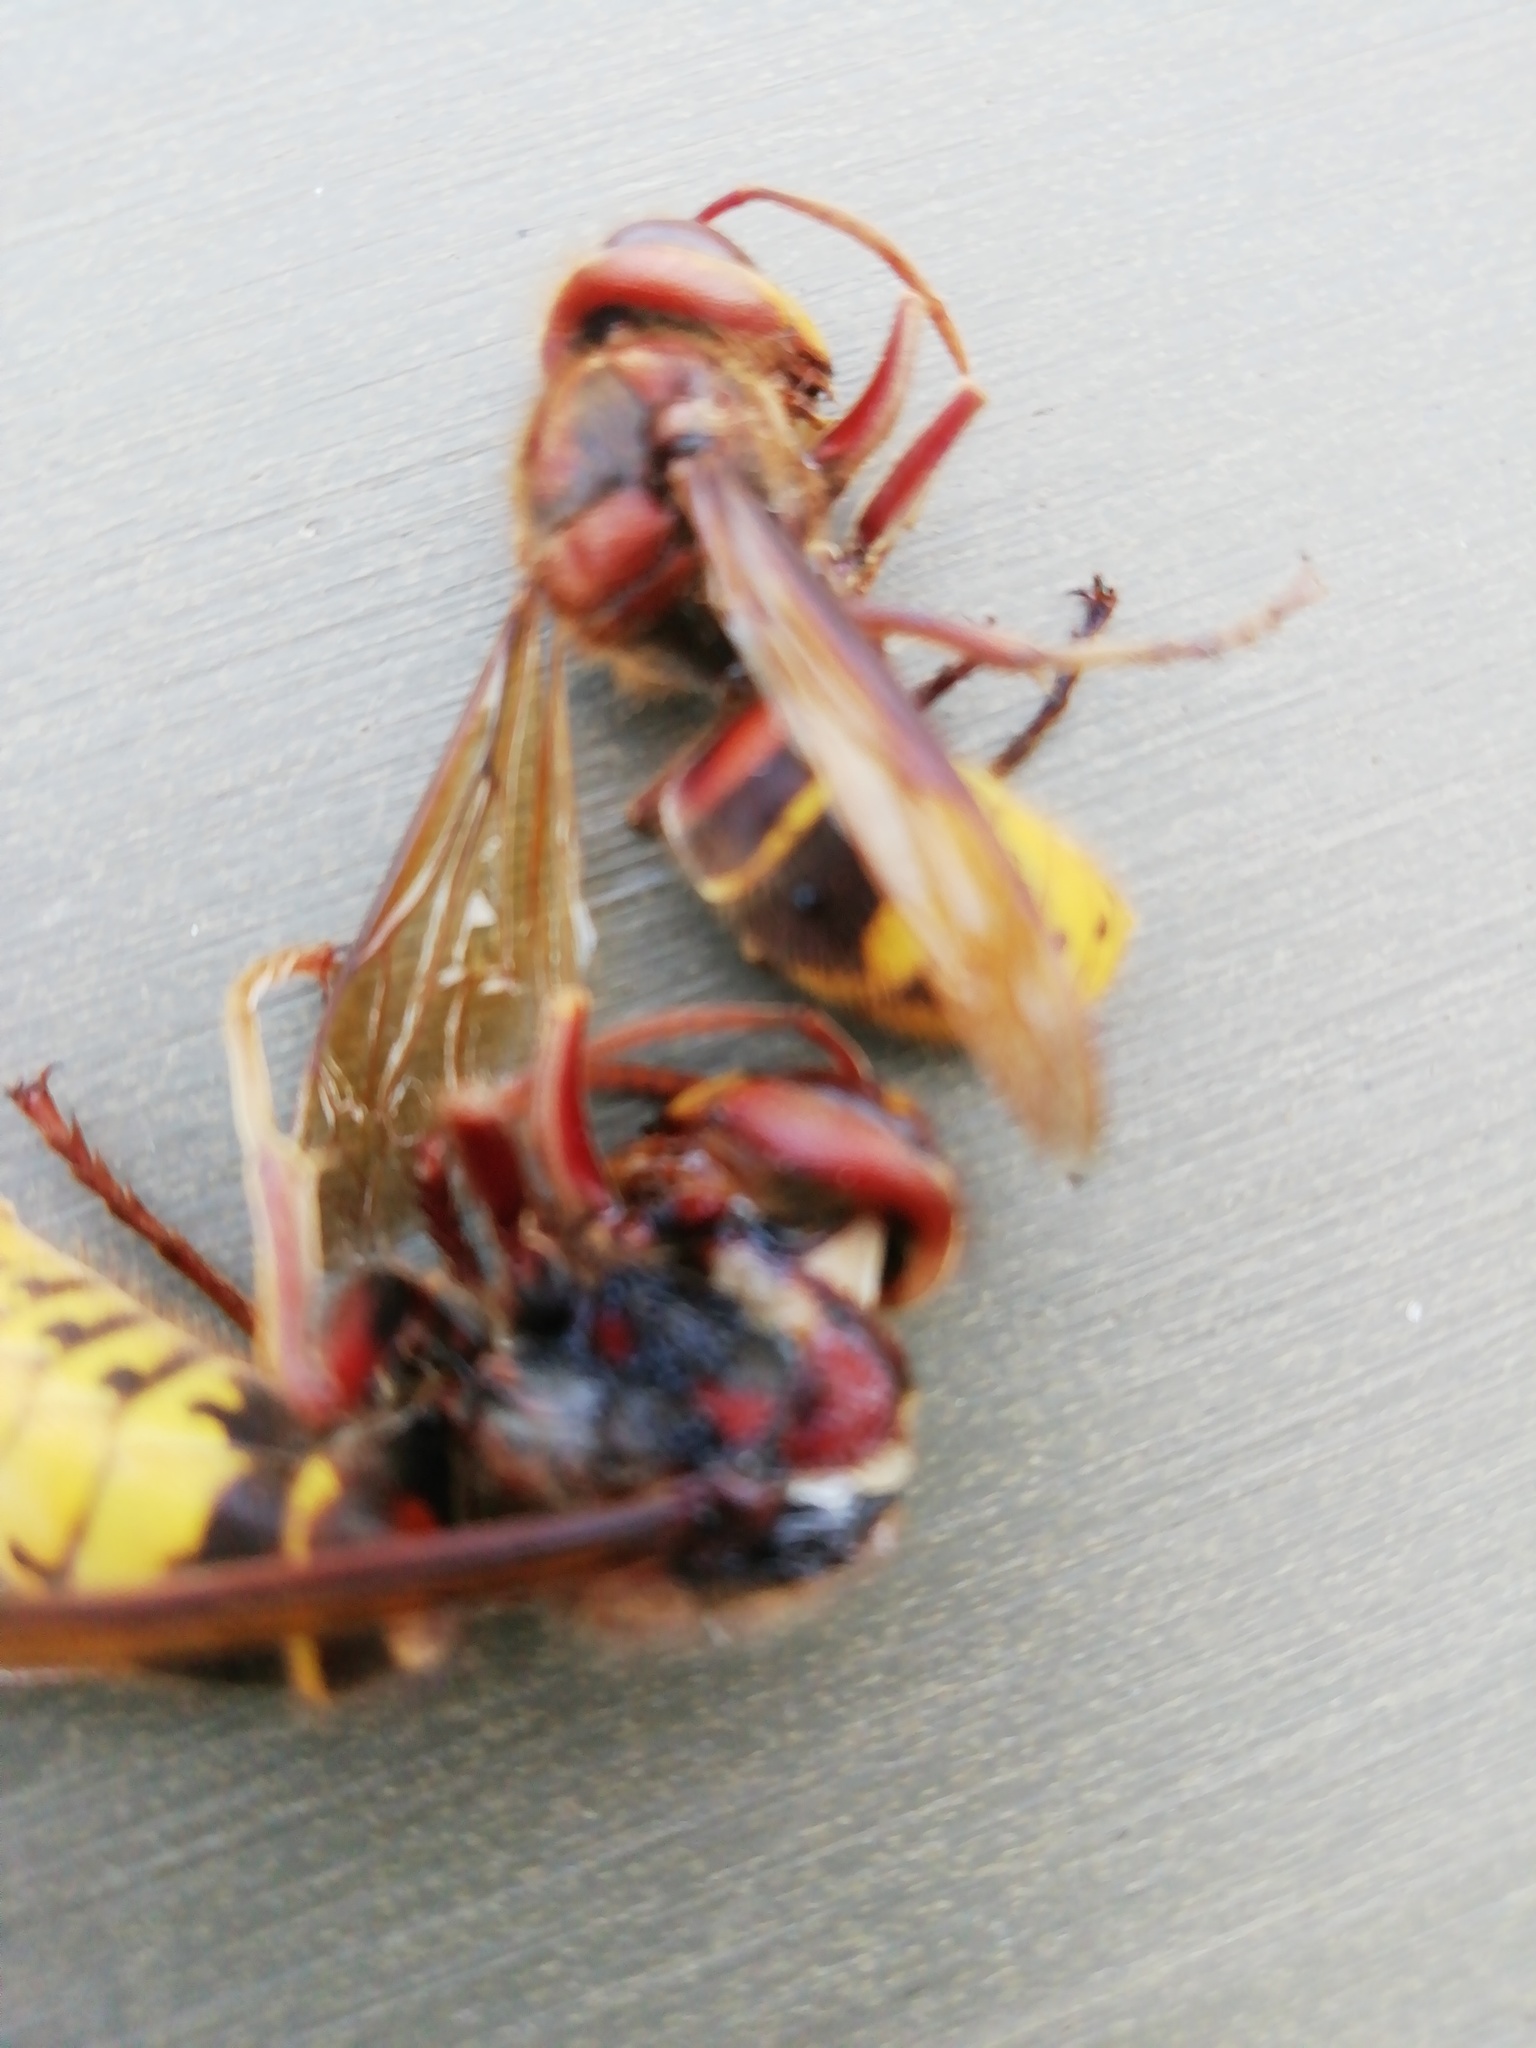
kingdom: Animalia
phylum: Arthropoda
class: Insecta
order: Hymenoptera
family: Vespidae
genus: Vespa
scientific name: Vespa crabro
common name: Hornet
